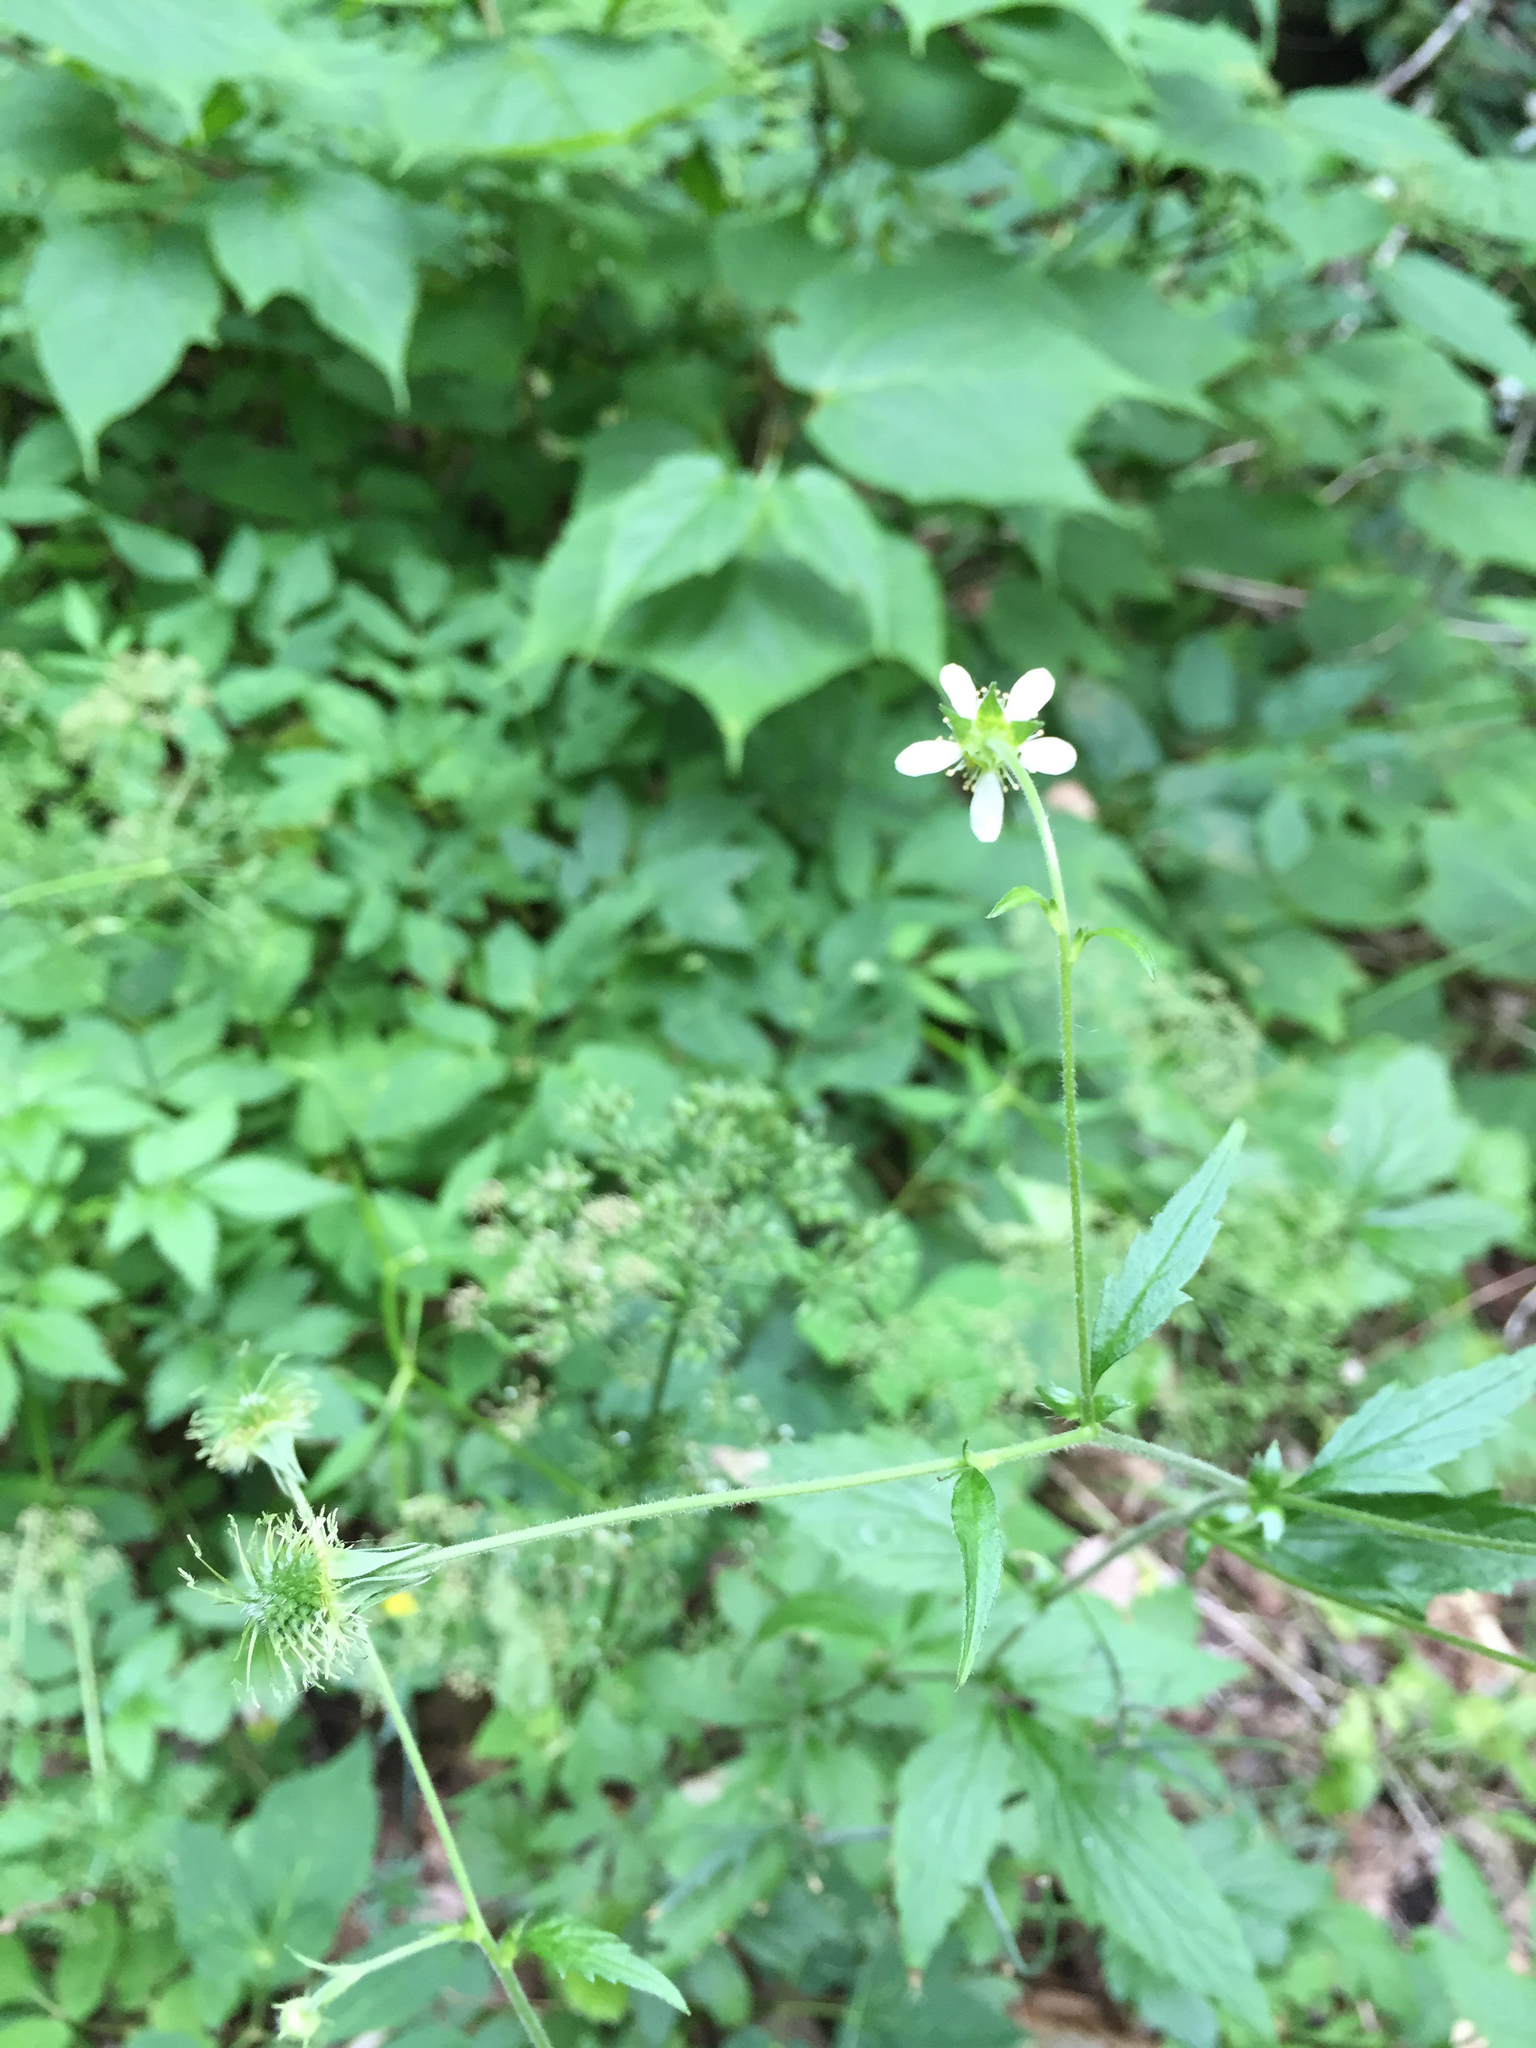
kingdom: Plantae
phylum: Tracheophyta
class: Magnoliopsida
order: Rosales
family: Rosaceae
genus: Geum
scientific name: Geum canadense
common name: White avens
